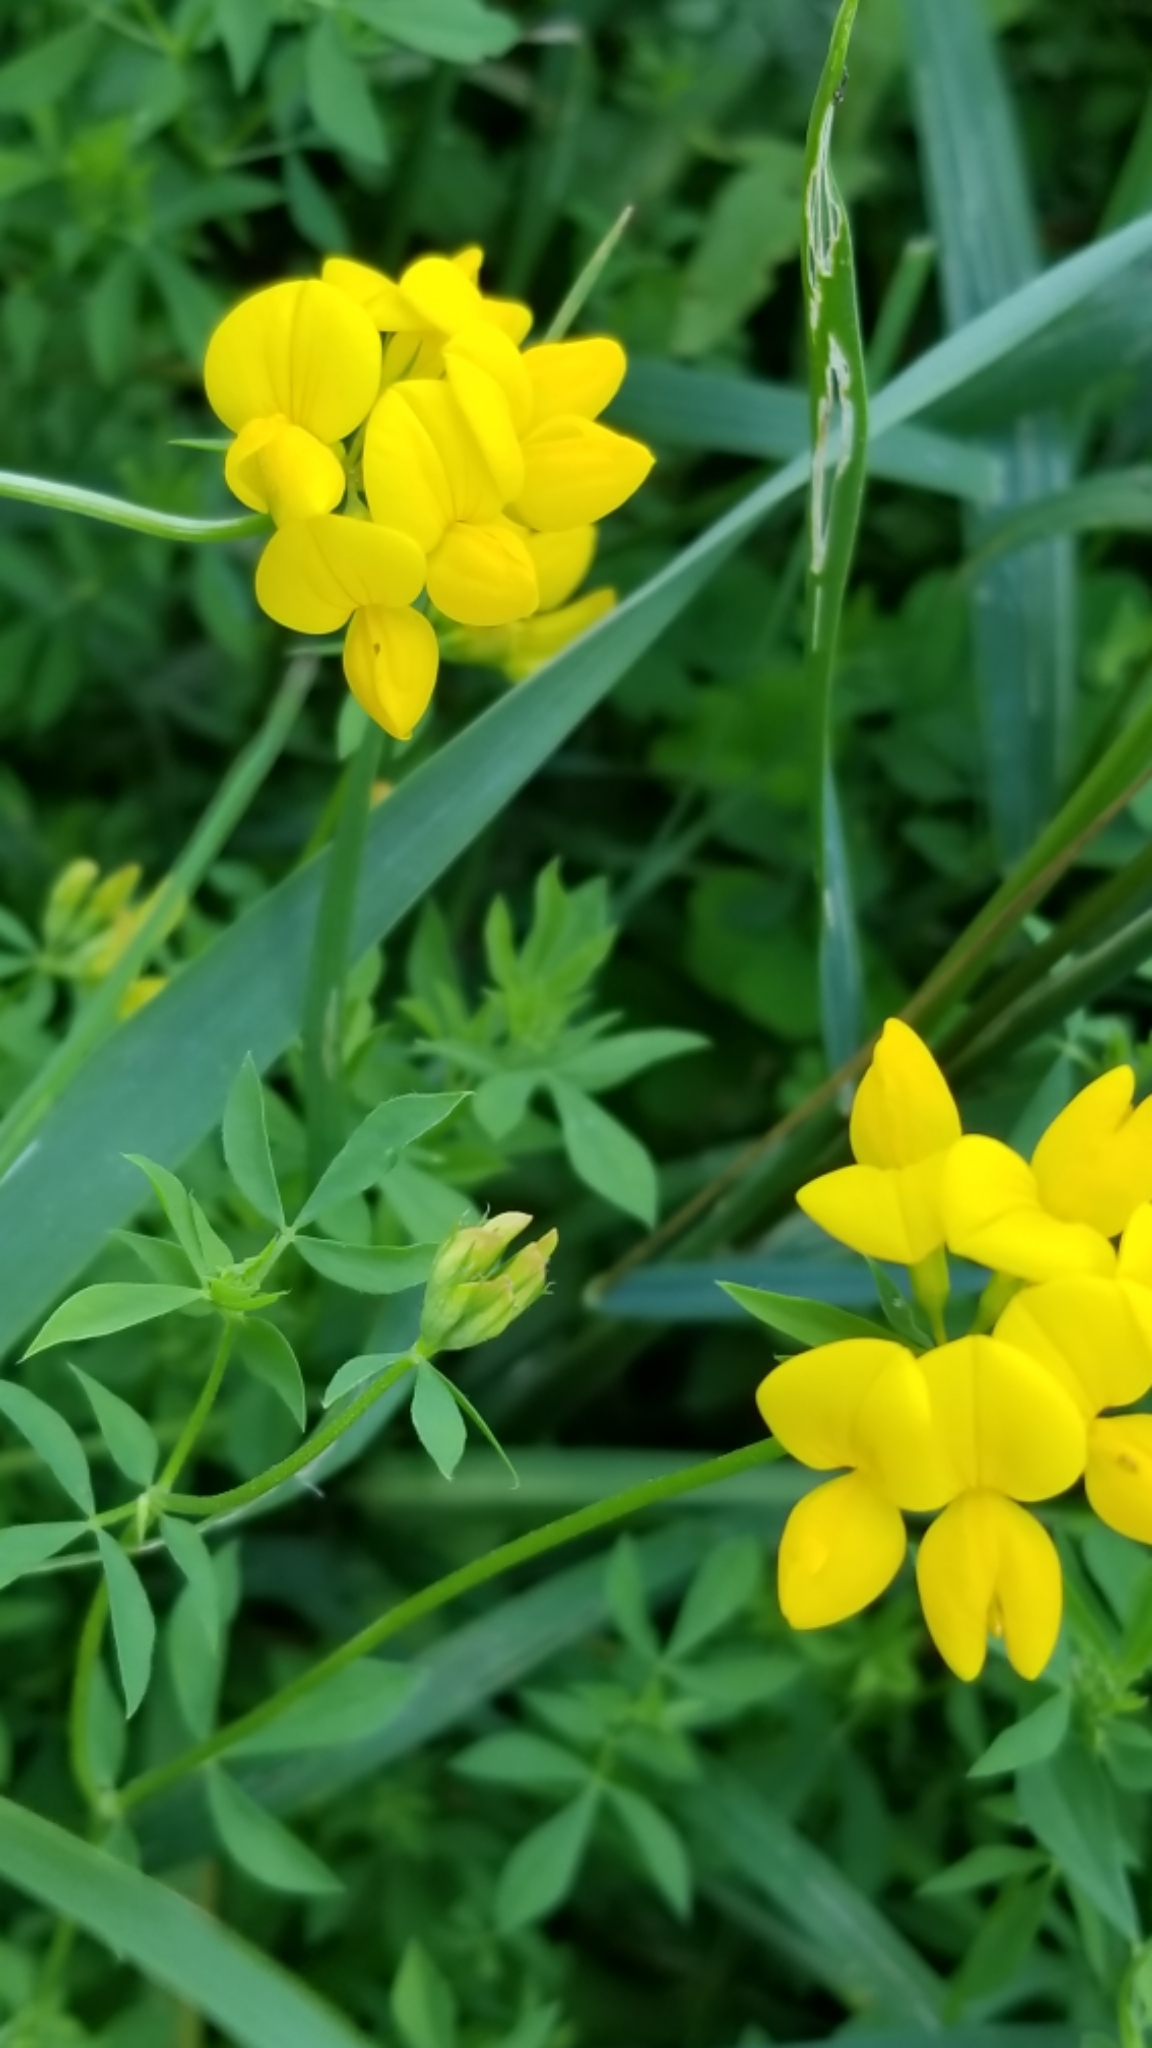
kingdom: Plantae
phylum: Tracheophyta
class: Magnoliopsida
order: Fabales
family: Fabaceae
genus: Lotus
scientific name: Lotus corniculatus
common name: Common bird's-foot-trefoil
